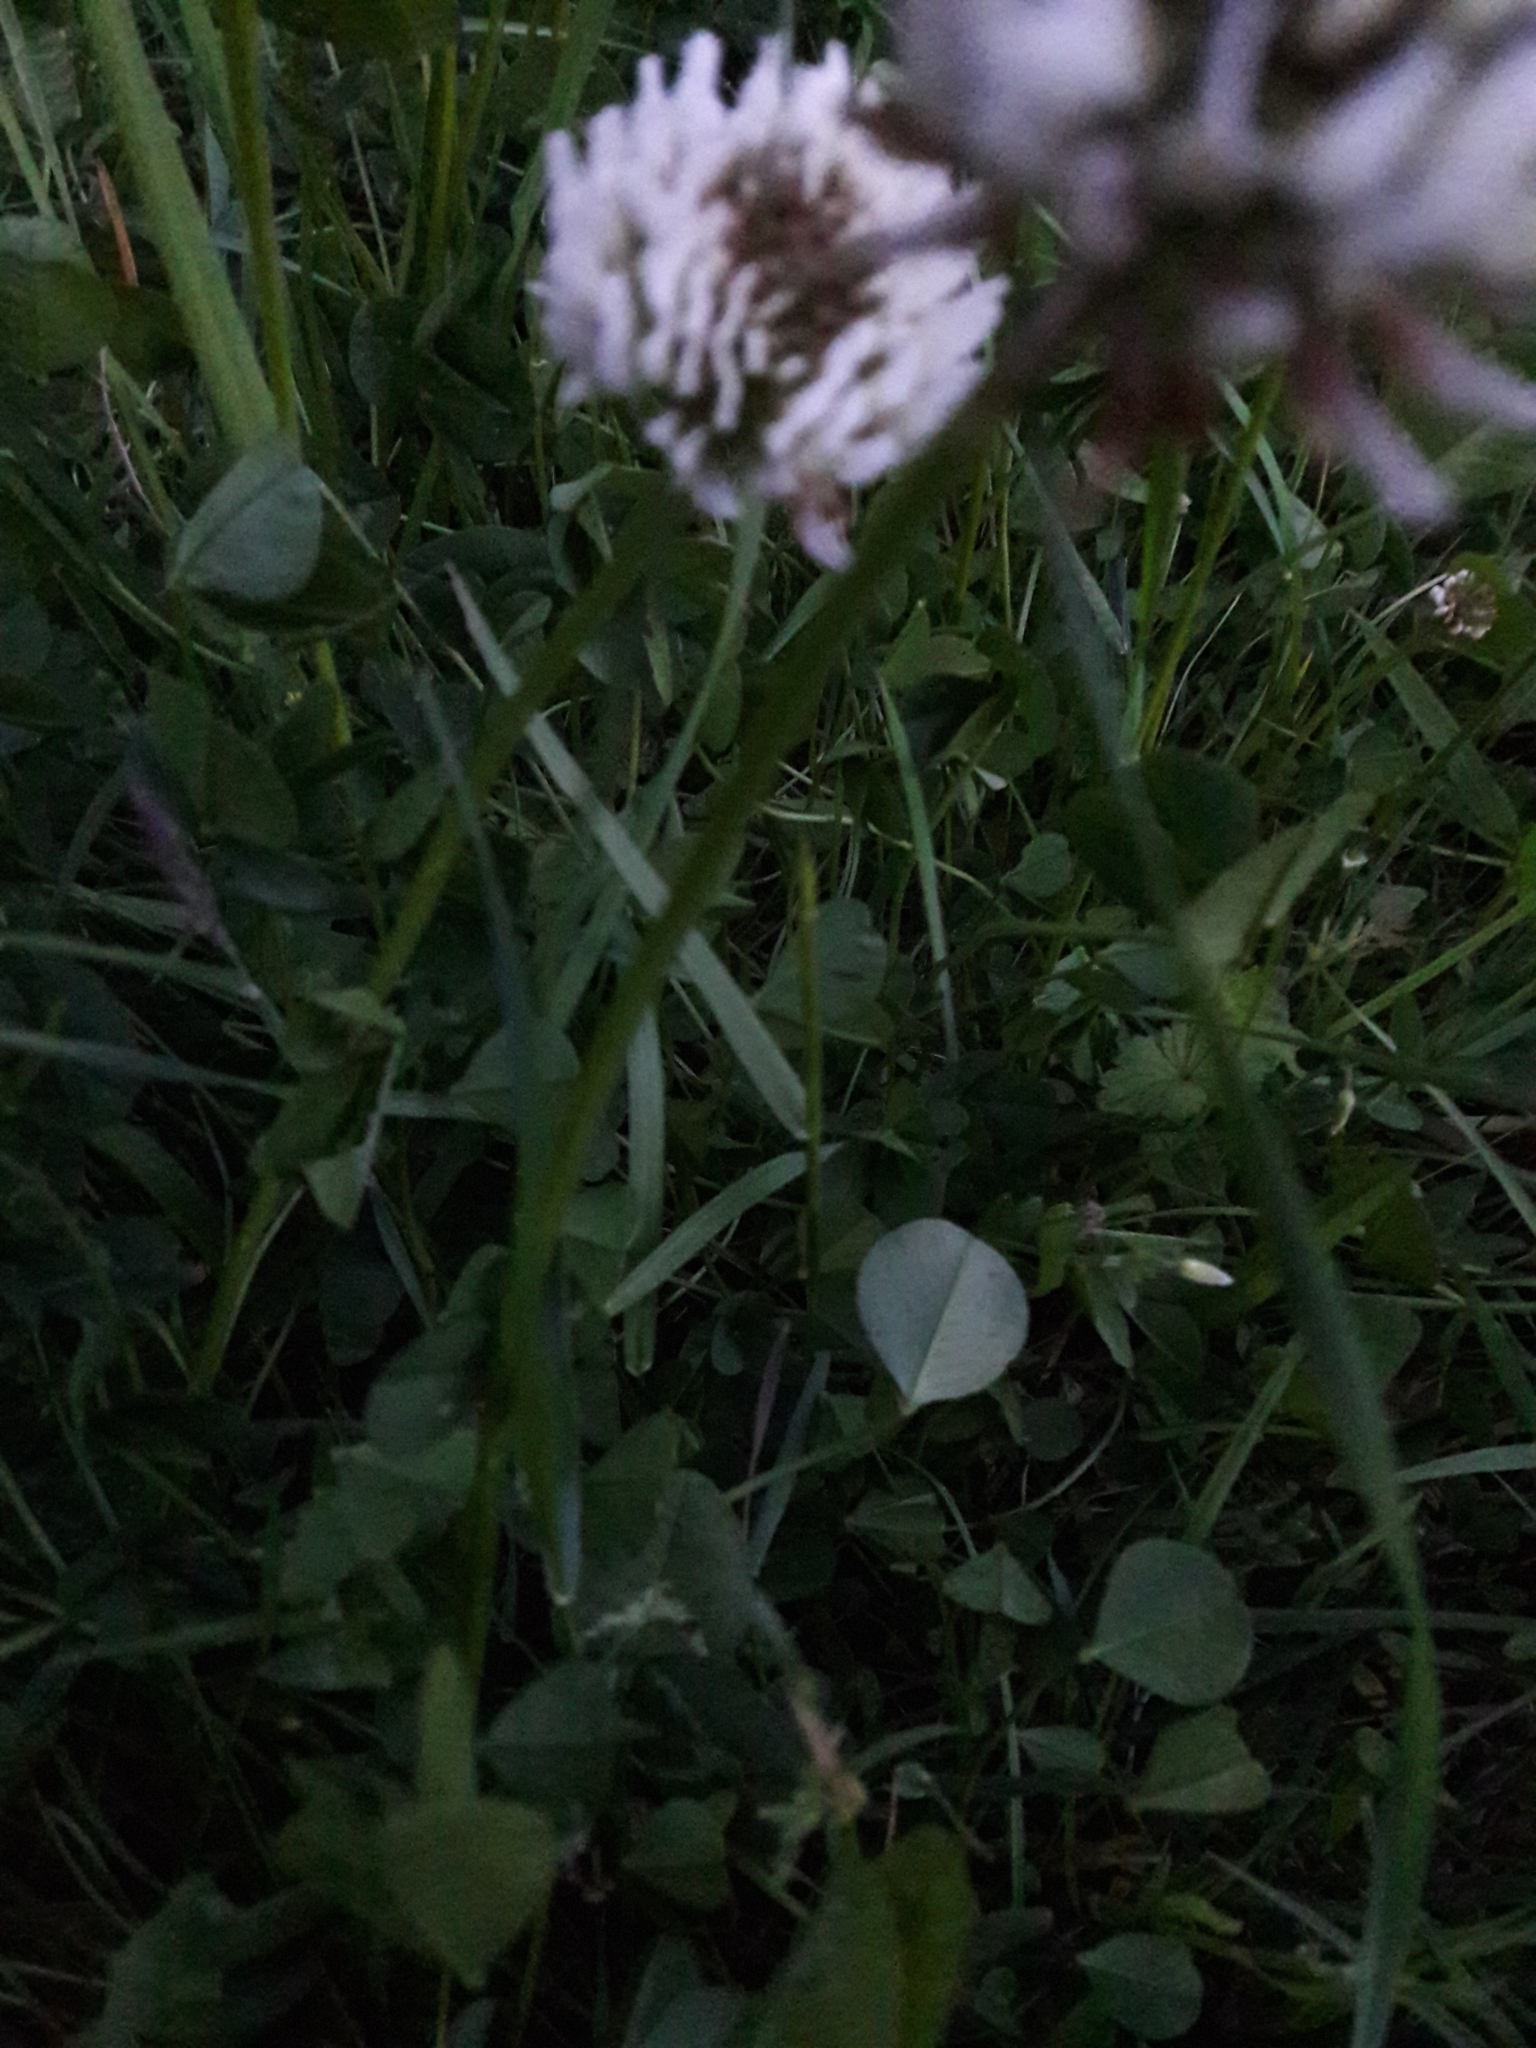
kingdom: Plantae
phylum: Tracheophyta
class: Magnoliopsida
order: Fabales
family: Fabaceae
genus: Trifolium
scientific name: Trifolium repens
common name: White clover
